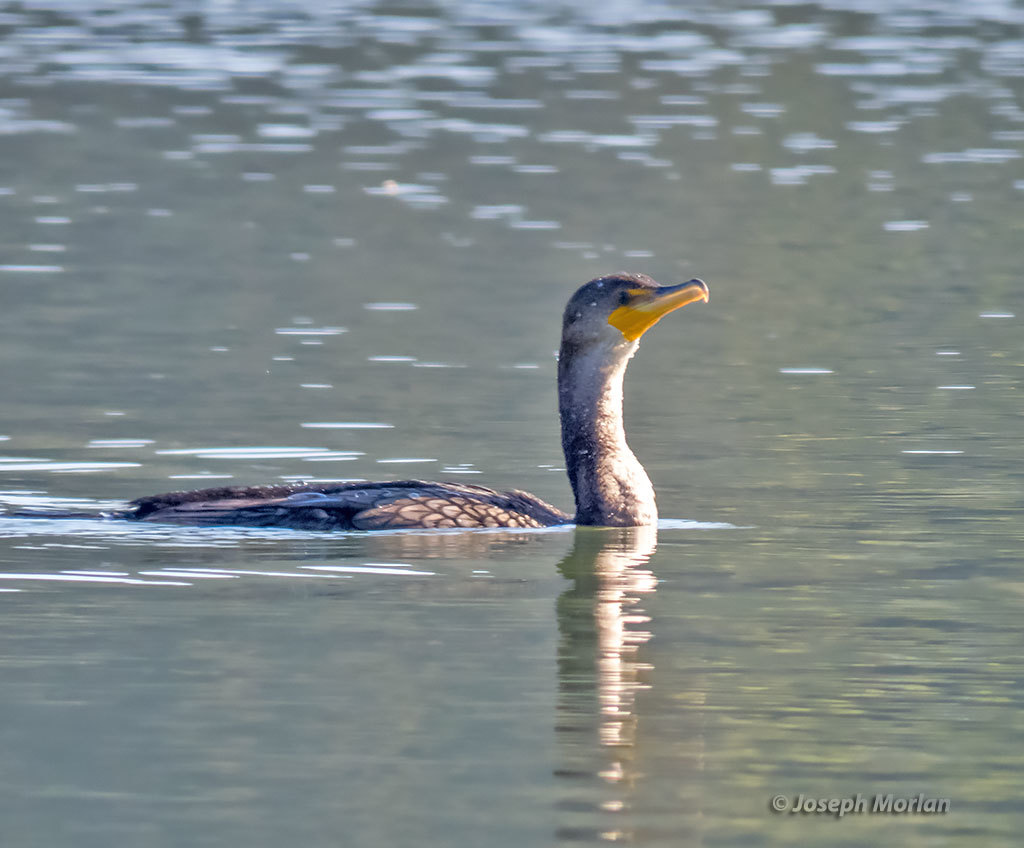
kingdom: Animalia
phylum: Chordata
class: Aves
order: Suliformes
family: Phalacrocoracidae
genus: Phalacrocorax
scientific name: Phalacrocorax auritus
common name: Double-crested cormorant
